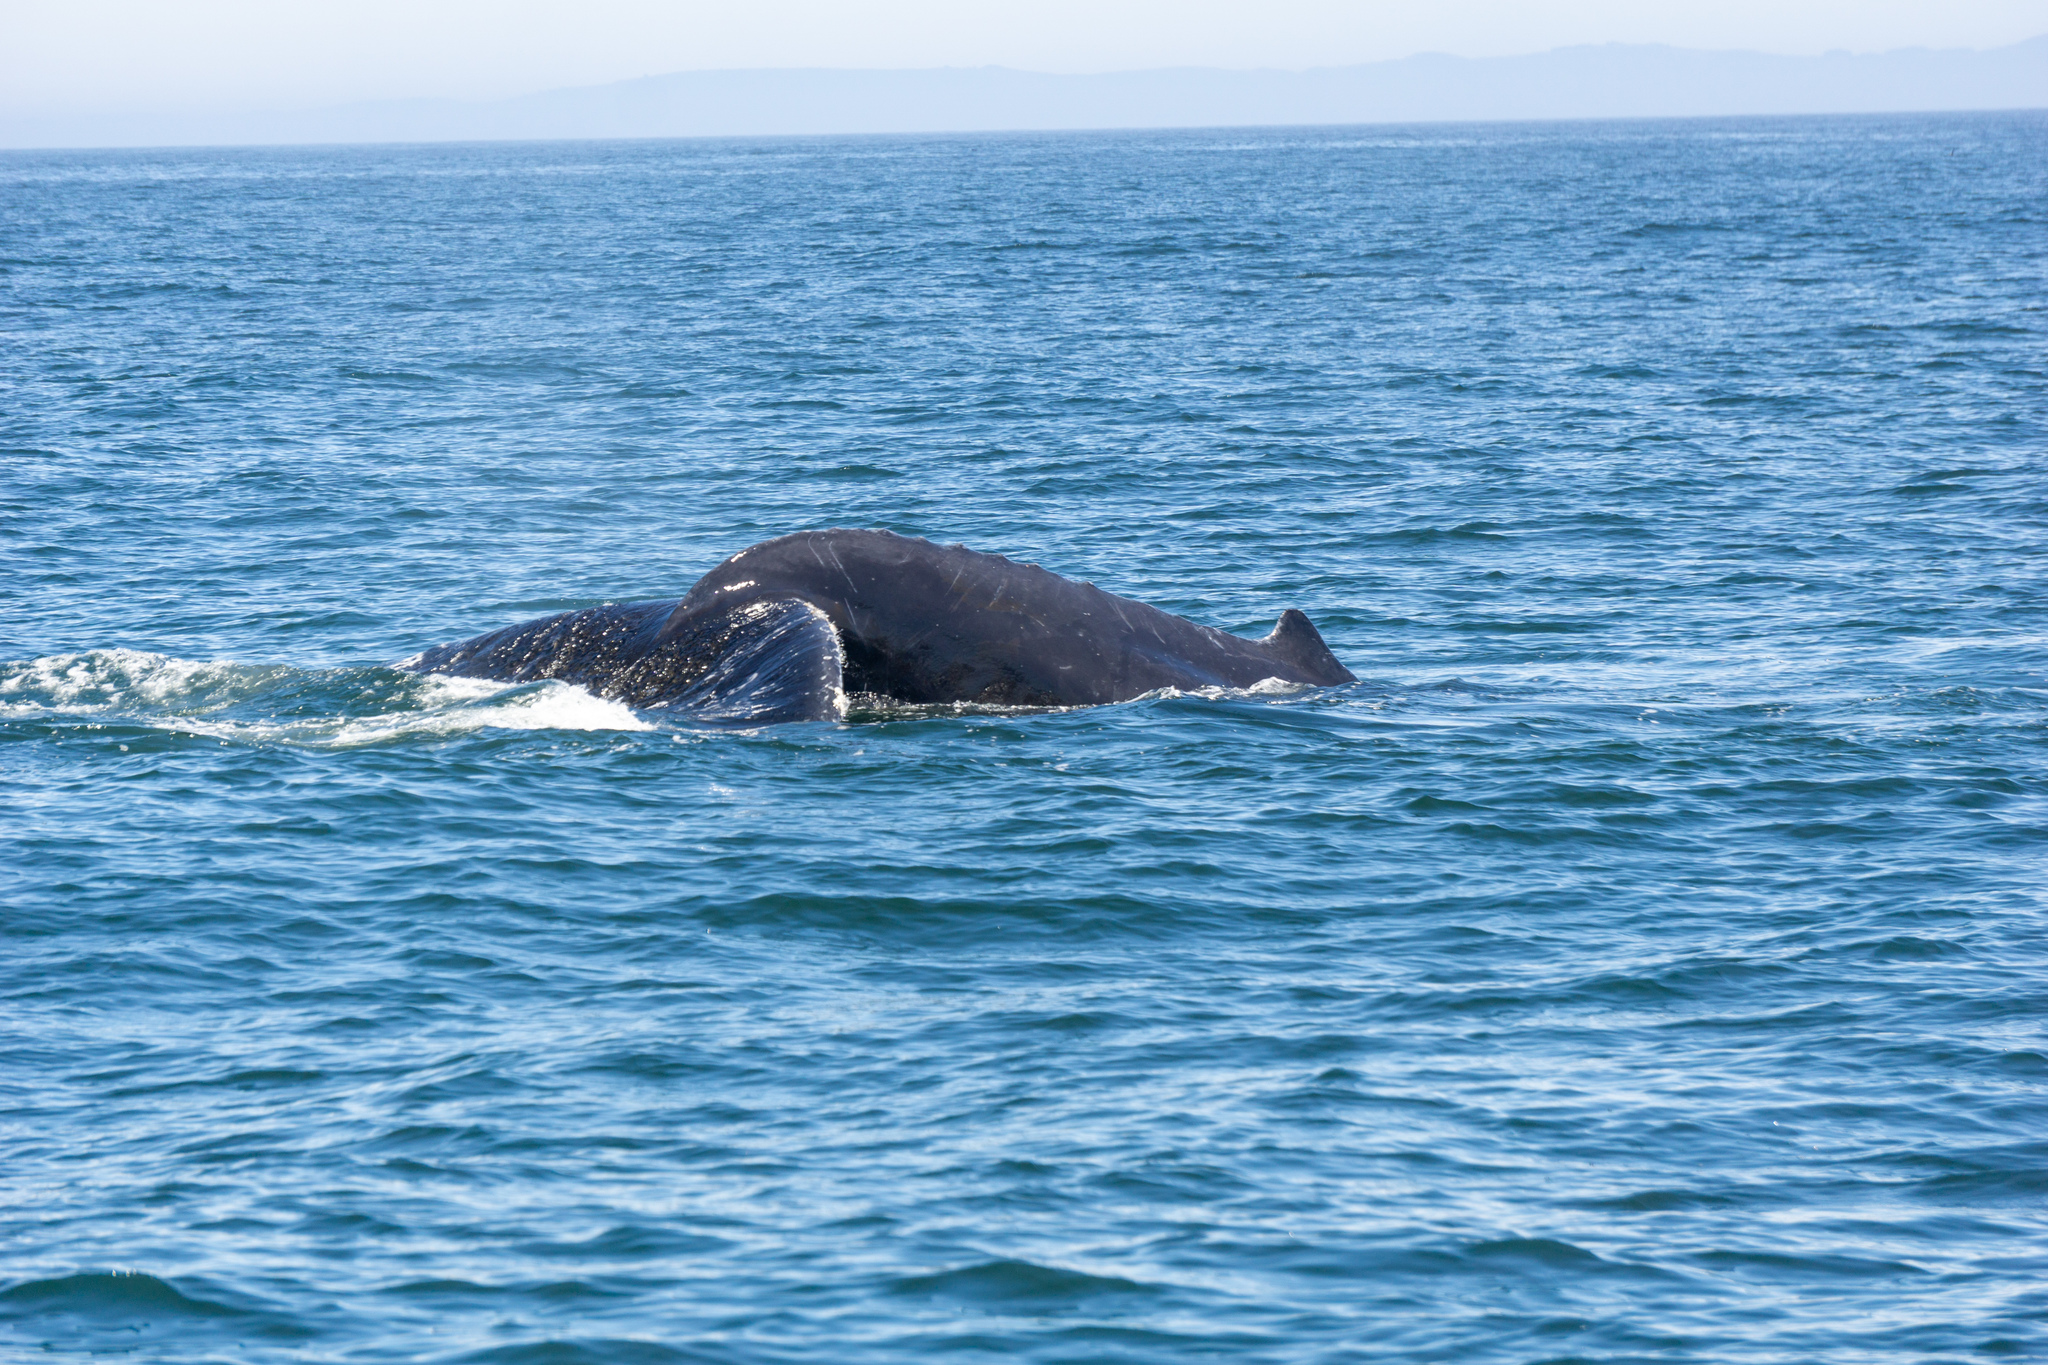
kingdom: Animalia
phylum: Chordata
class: Mammalia
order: Cetacea
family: Balaenopteridae
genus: Megaptera
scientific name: Megaptera novaeangliae
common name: Humpback whale
